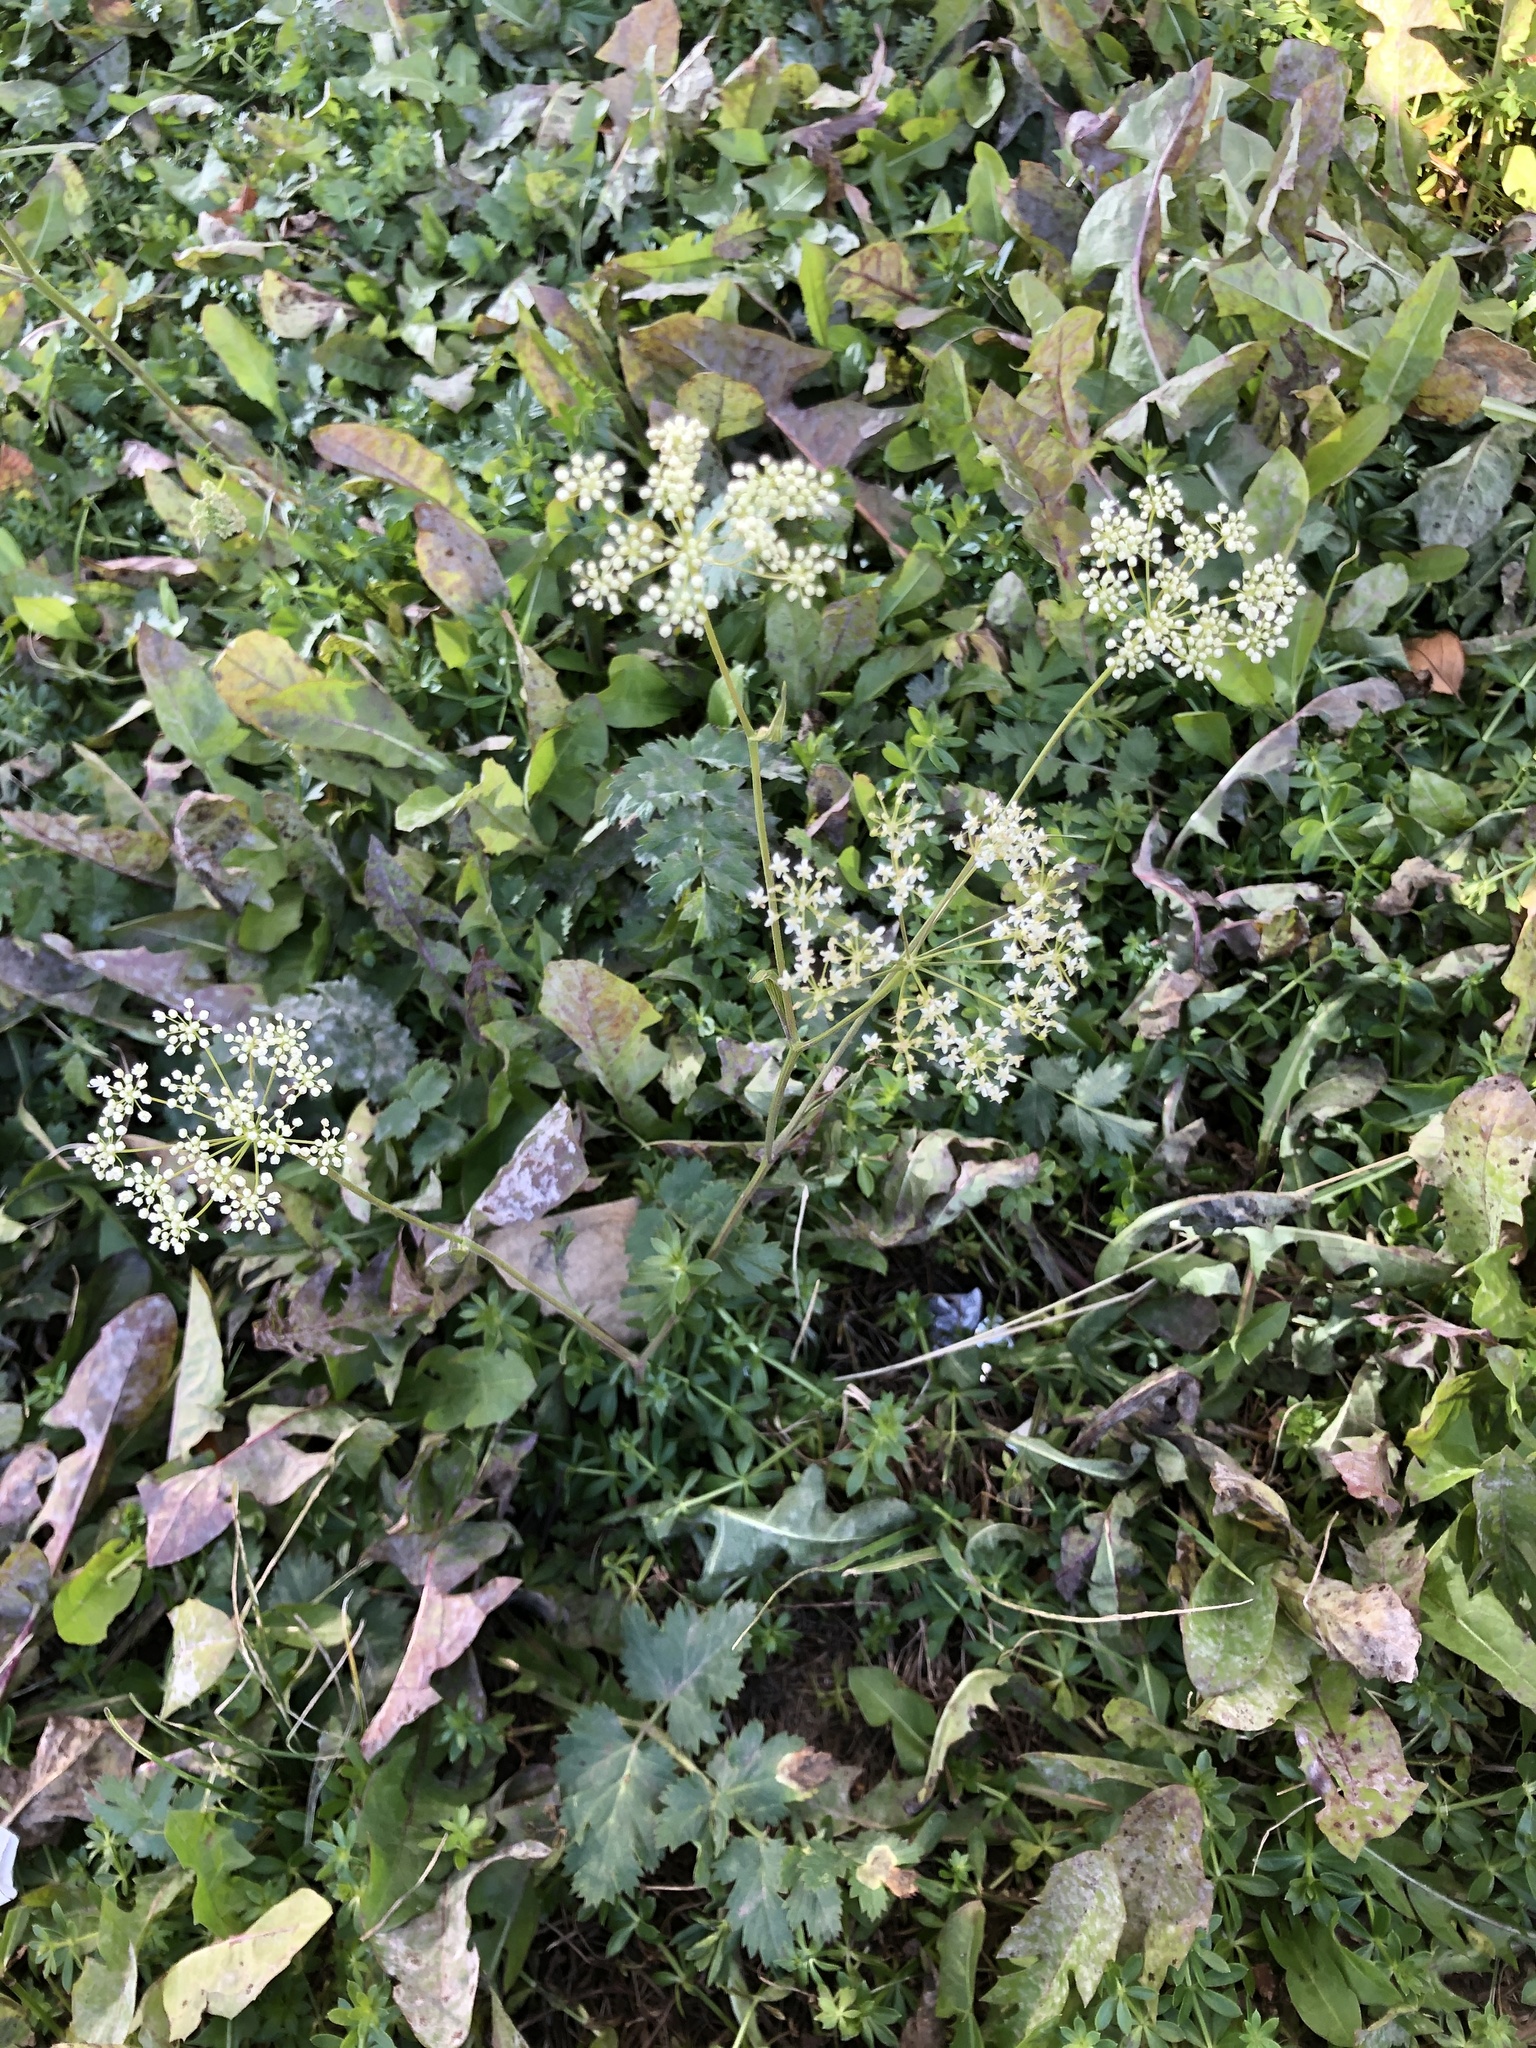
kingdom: Plantae
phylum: Tracheophyta
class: Magnoliopsida
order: Apiales
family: Apiaceae
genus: Pimpinella
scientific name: Pimpinella saxifraga
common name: Burnet-saxifrage
